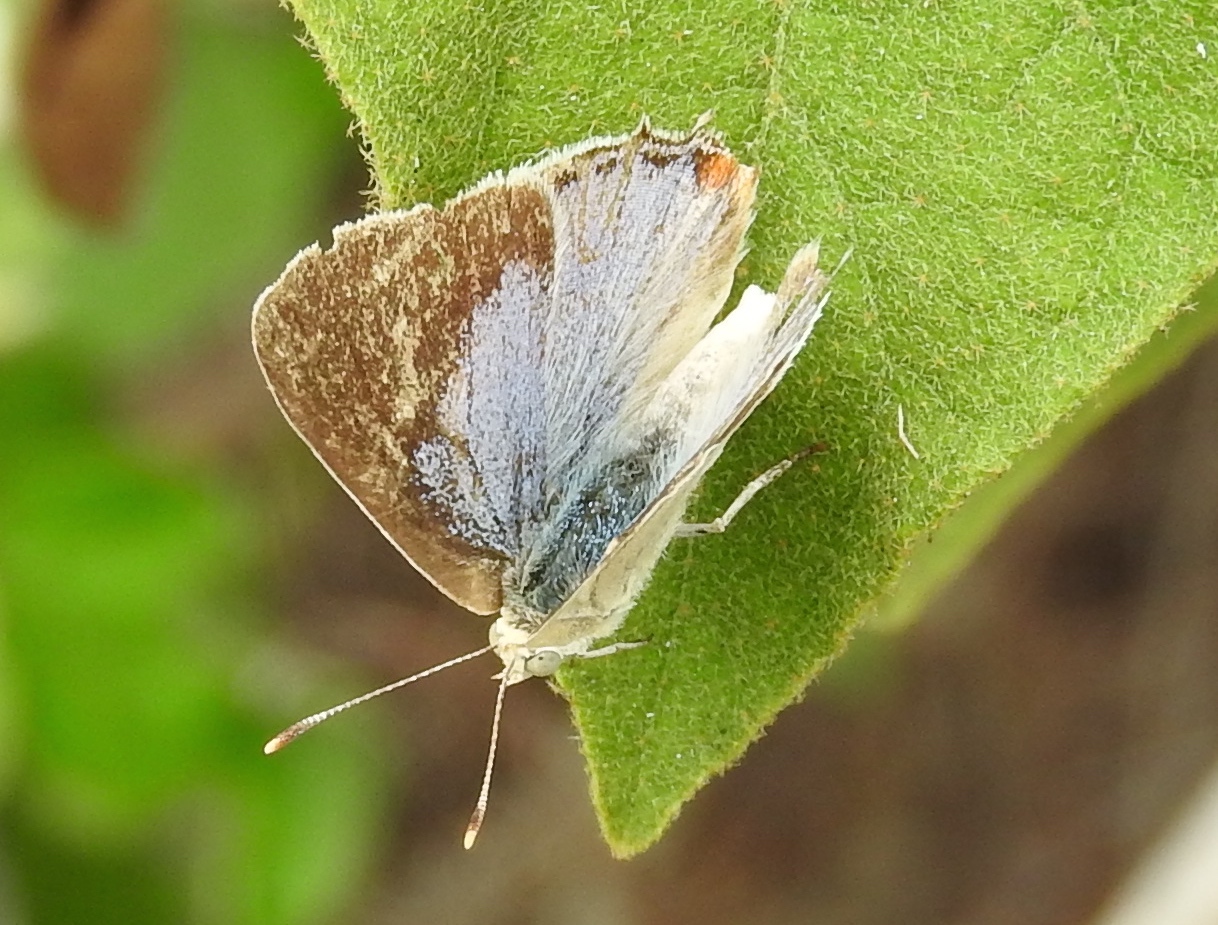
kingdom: Animalia
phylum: Arthropoda
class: Insecta
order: Lepidoptera
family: Lycaenidae
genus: Dolymorpha
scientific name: Dolymorpha jada
